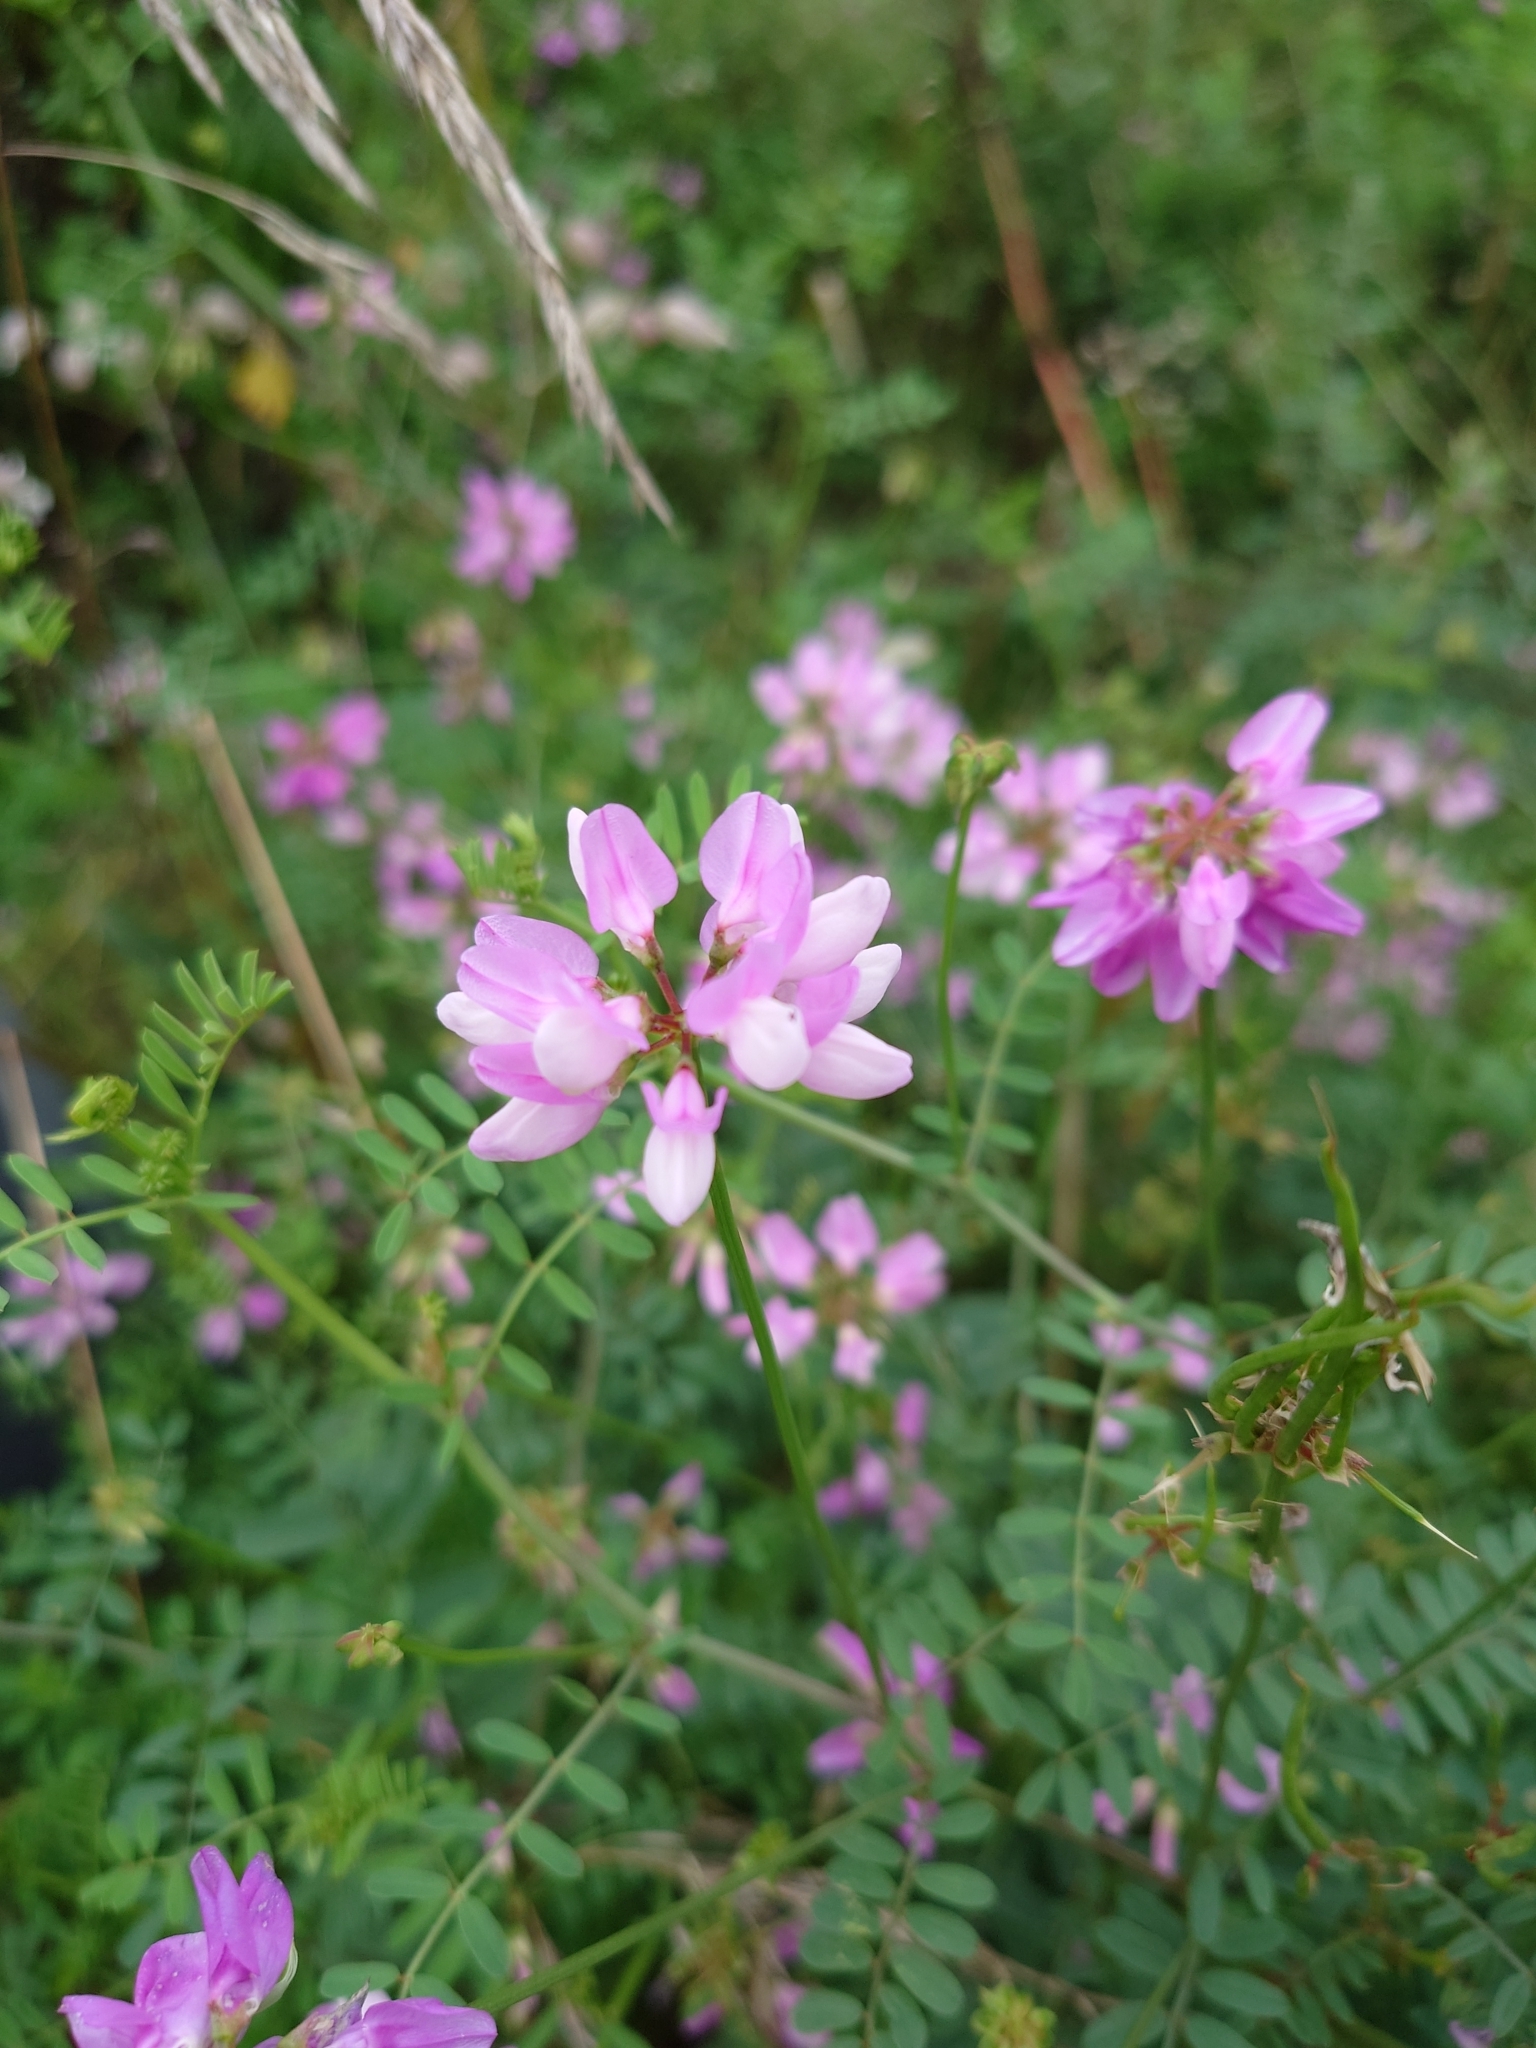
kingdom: Plantae
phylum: Tracheophyta
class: Magnoliopsida
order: Fabales
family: Fabaceae
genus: Coronilla
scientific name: Coronilla varia
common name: Crownvetch
